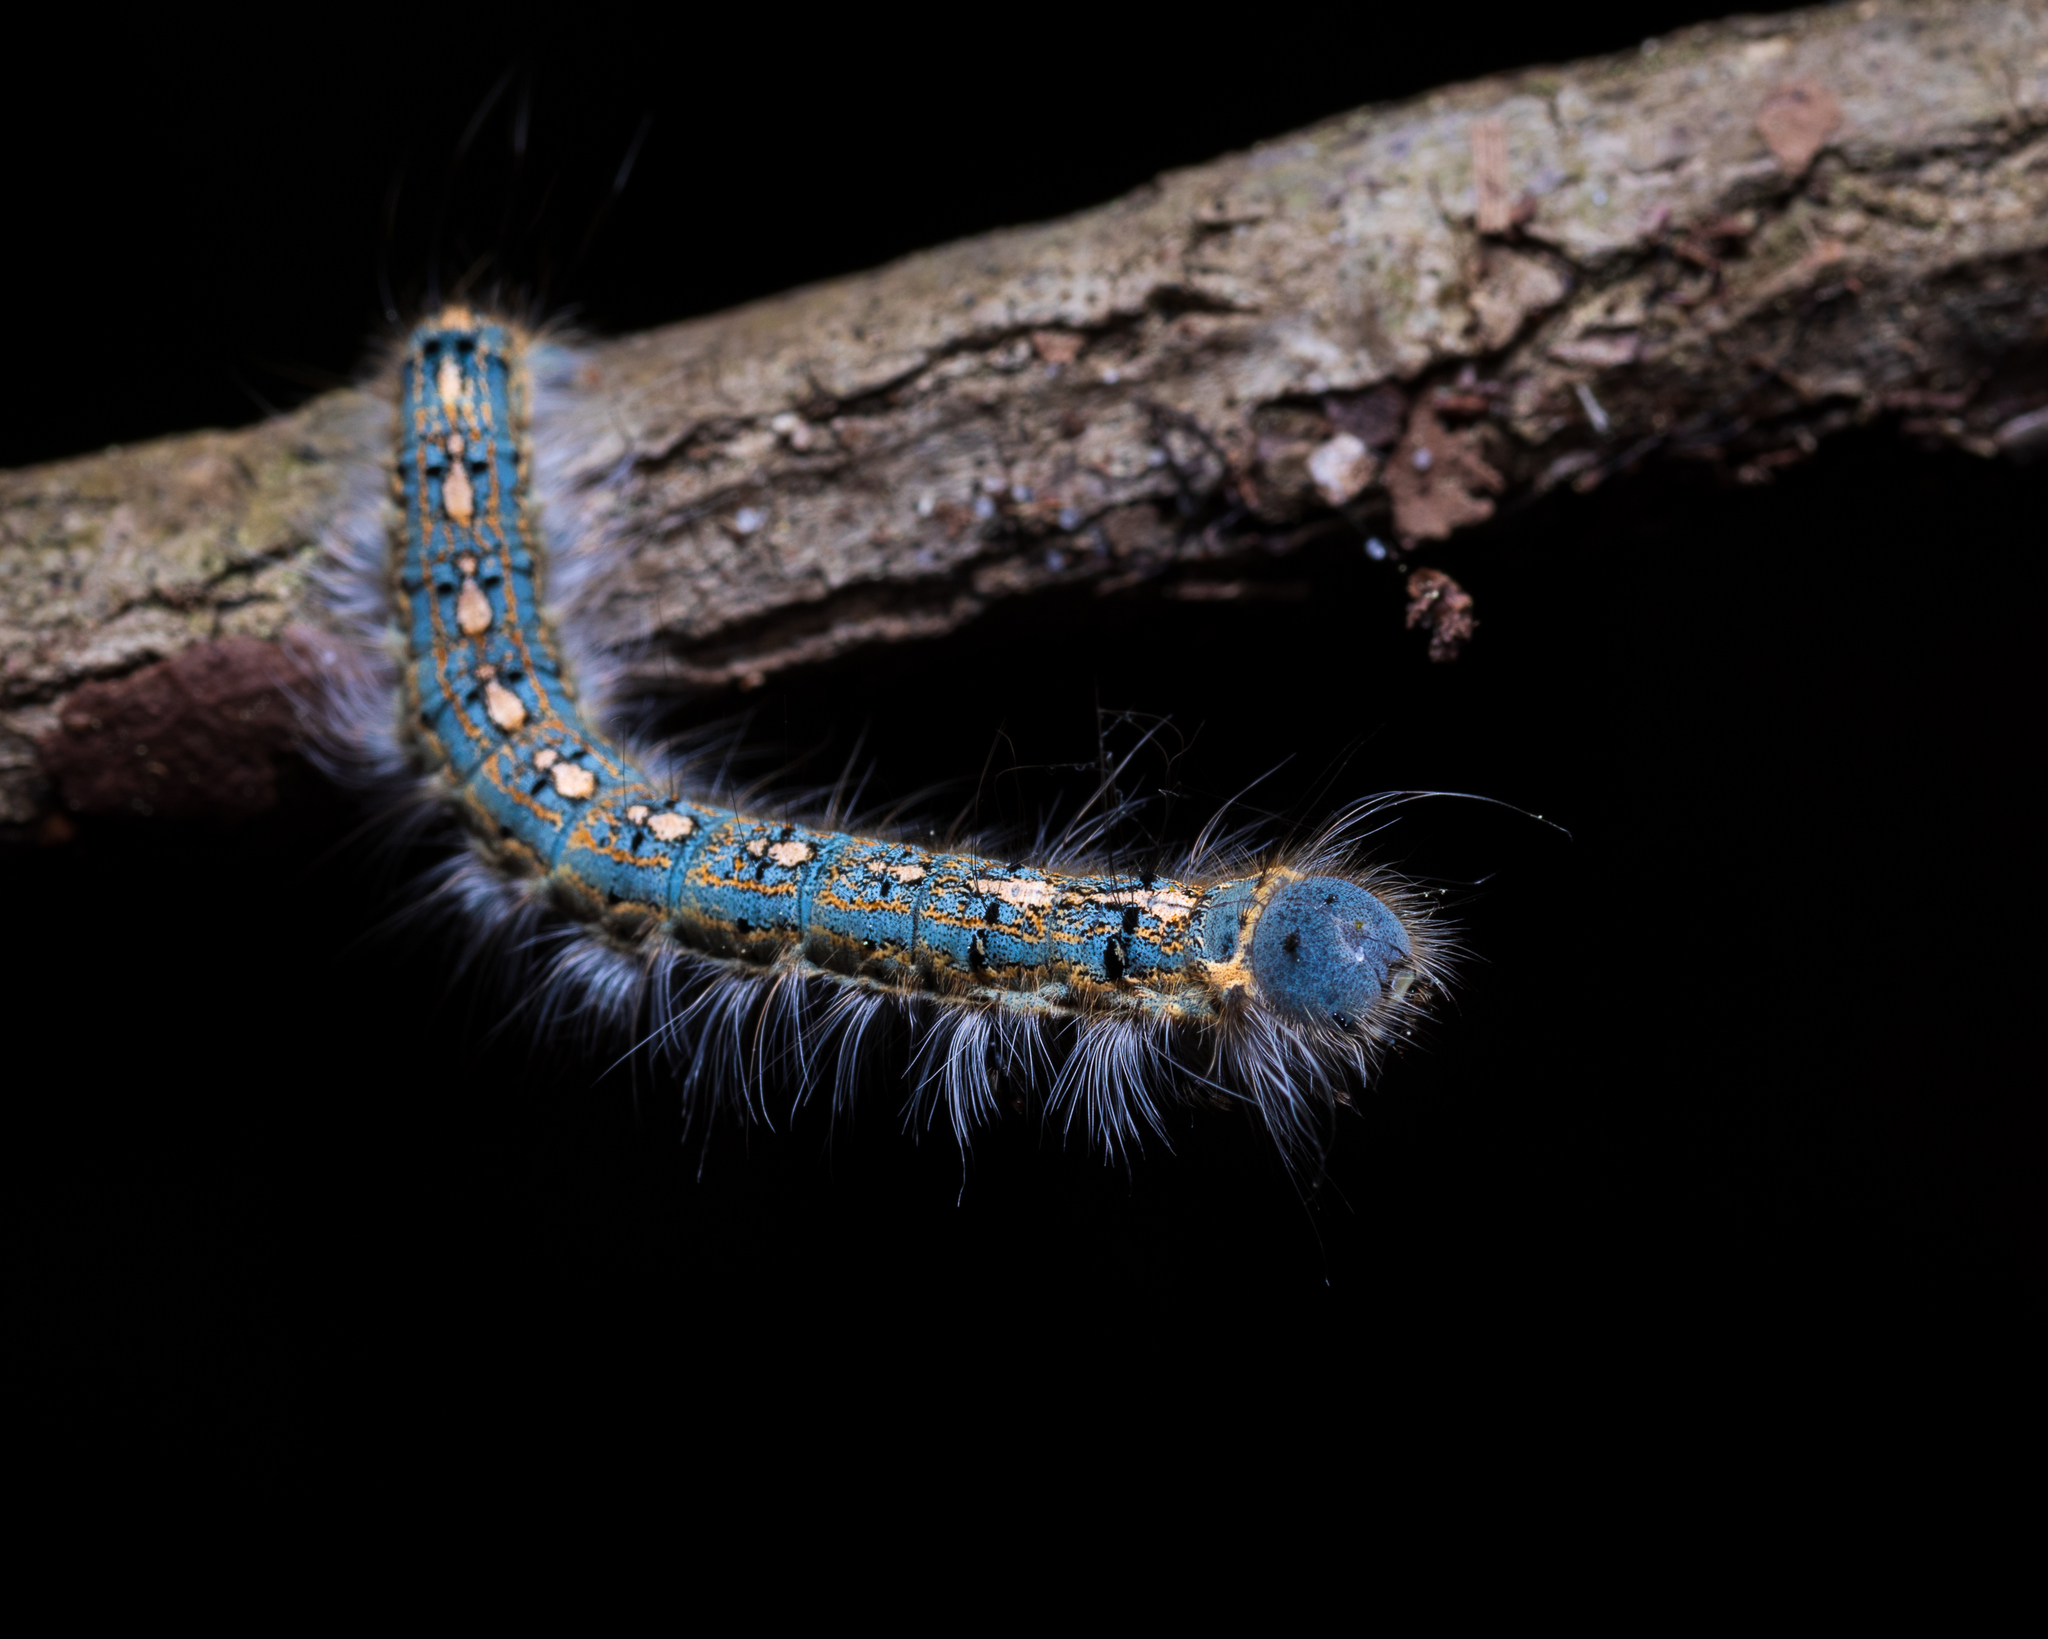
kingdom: Animalia
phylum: Arthropoda
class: Insecta
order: Lepidoptera
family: Lasiocampidae
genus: Malacosoma
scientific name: Malacosoma disstria
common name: Forest tent caterpillar
